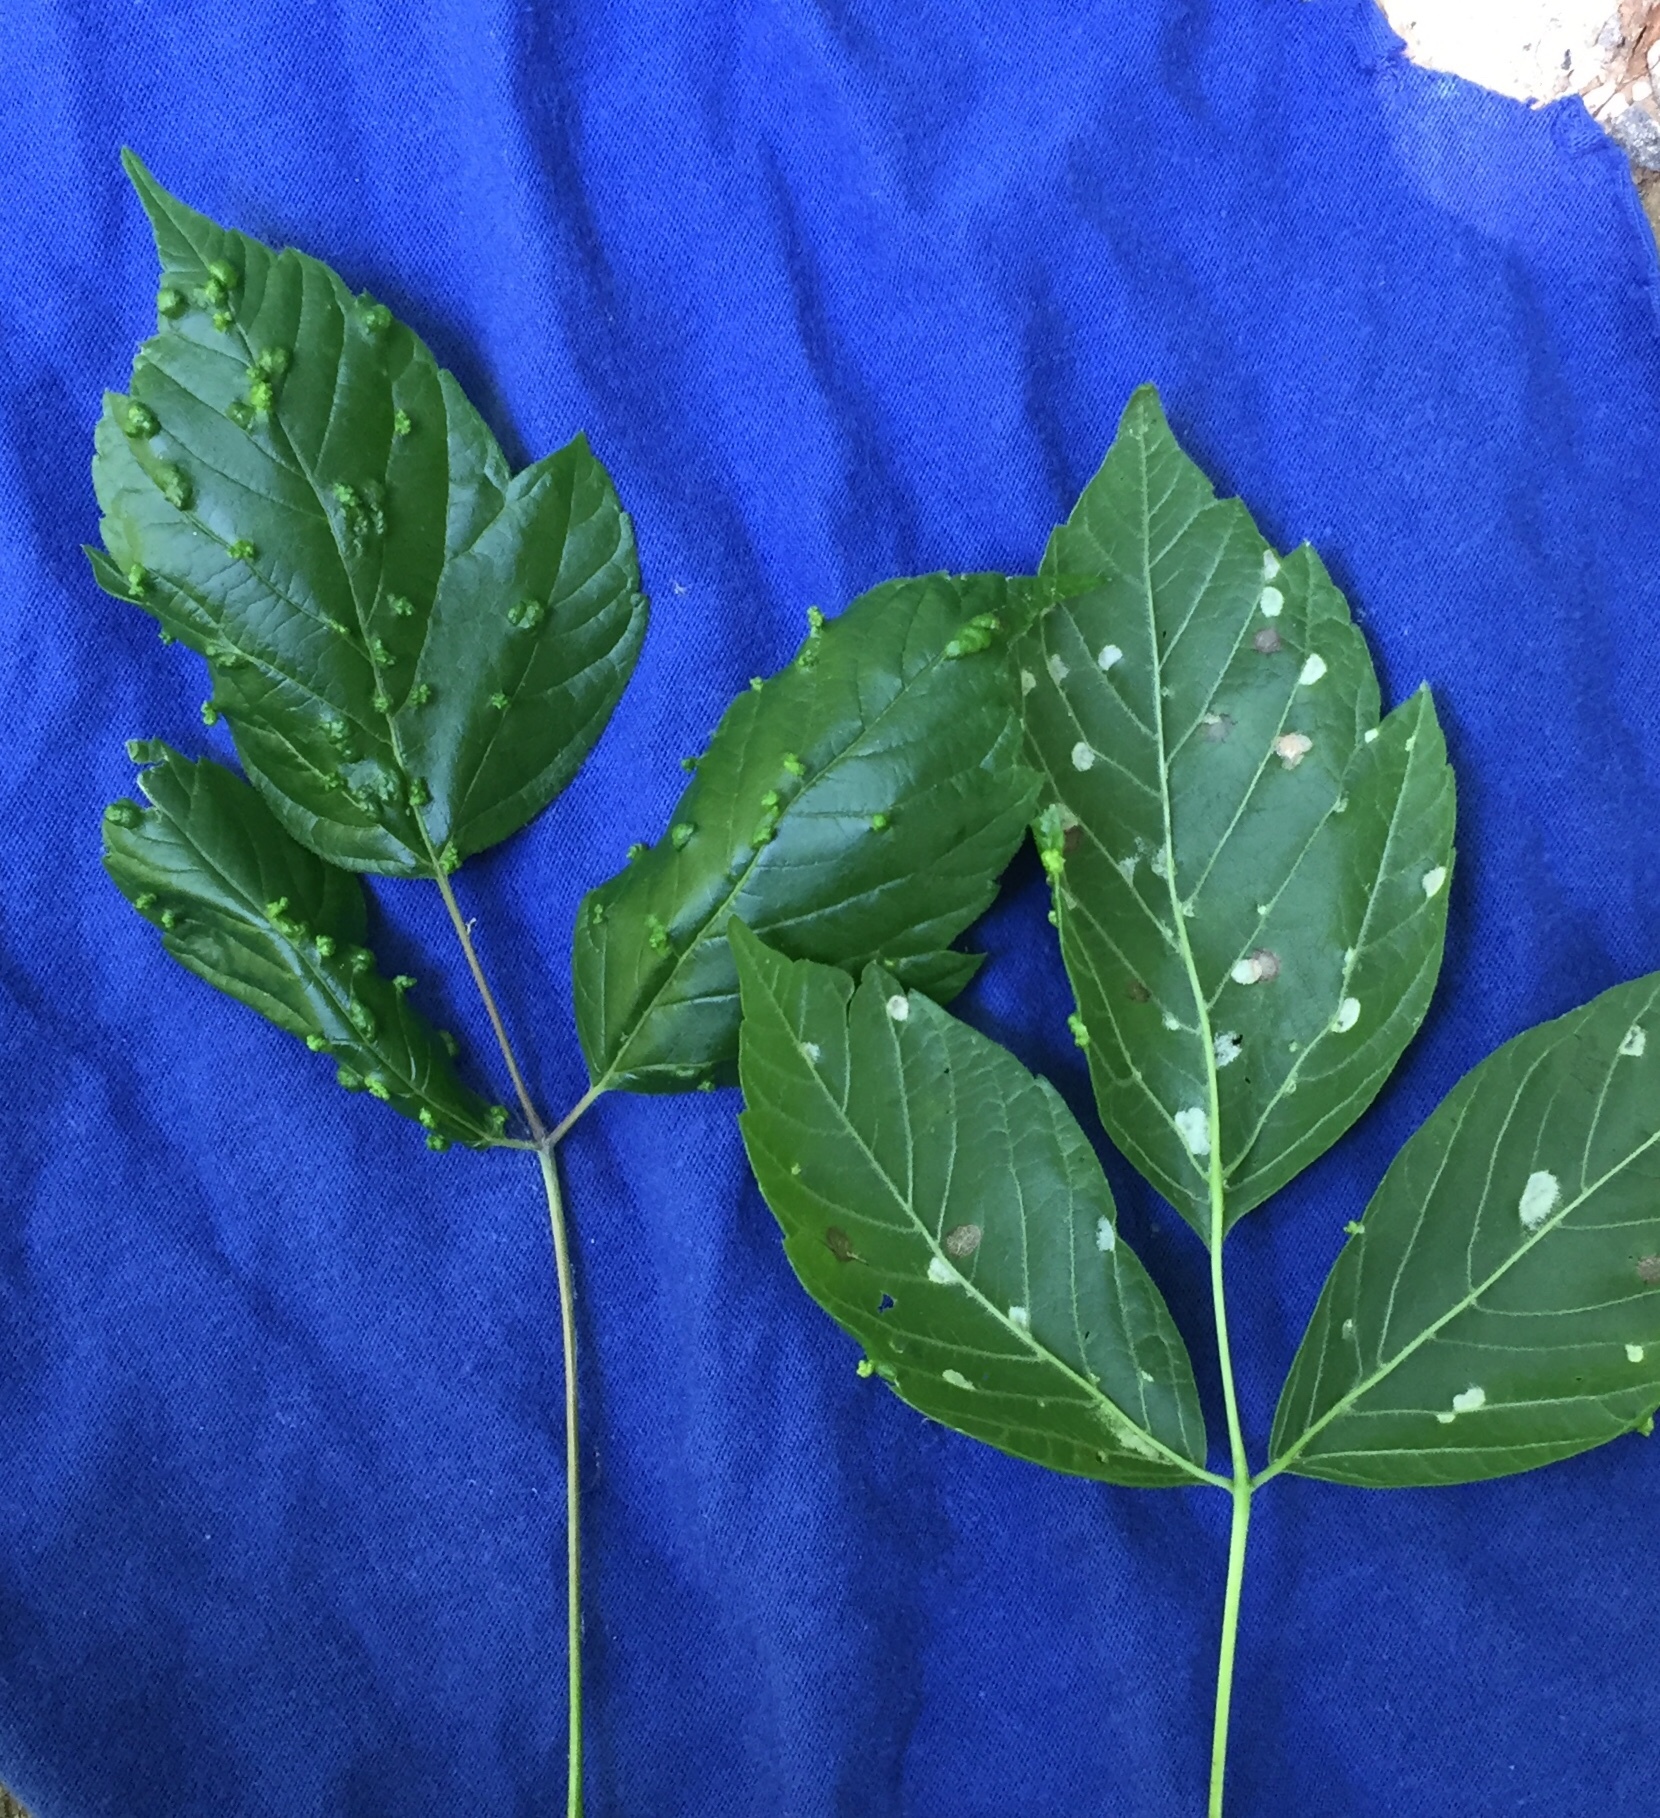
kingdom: Animalia
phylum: Arthropoda
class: Arachnida
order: Trombidiformes
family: Eriophyidae
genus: Aceria
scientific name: Aceria
